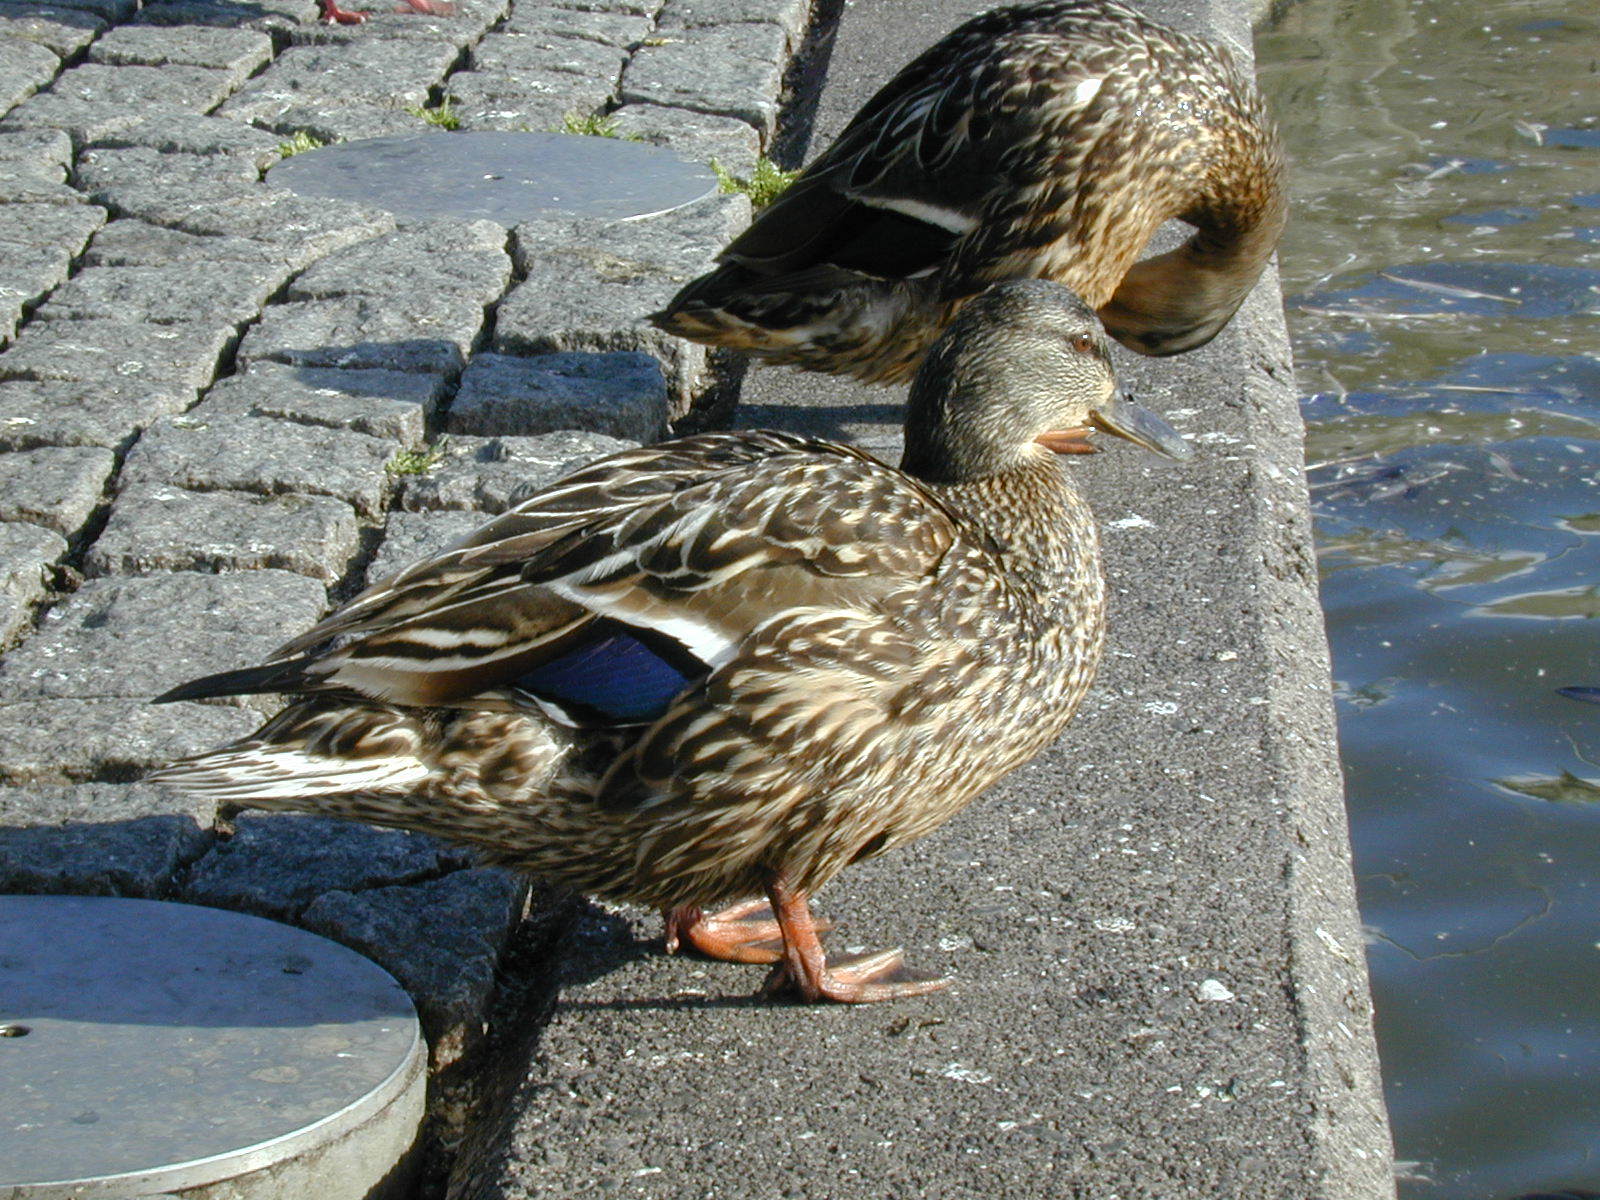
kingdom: Animalia
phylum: Chordata
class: Aves
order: Anseriformes
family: Anatidae
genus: Anas
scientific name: Anas platyrhynchos
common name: Mallard
